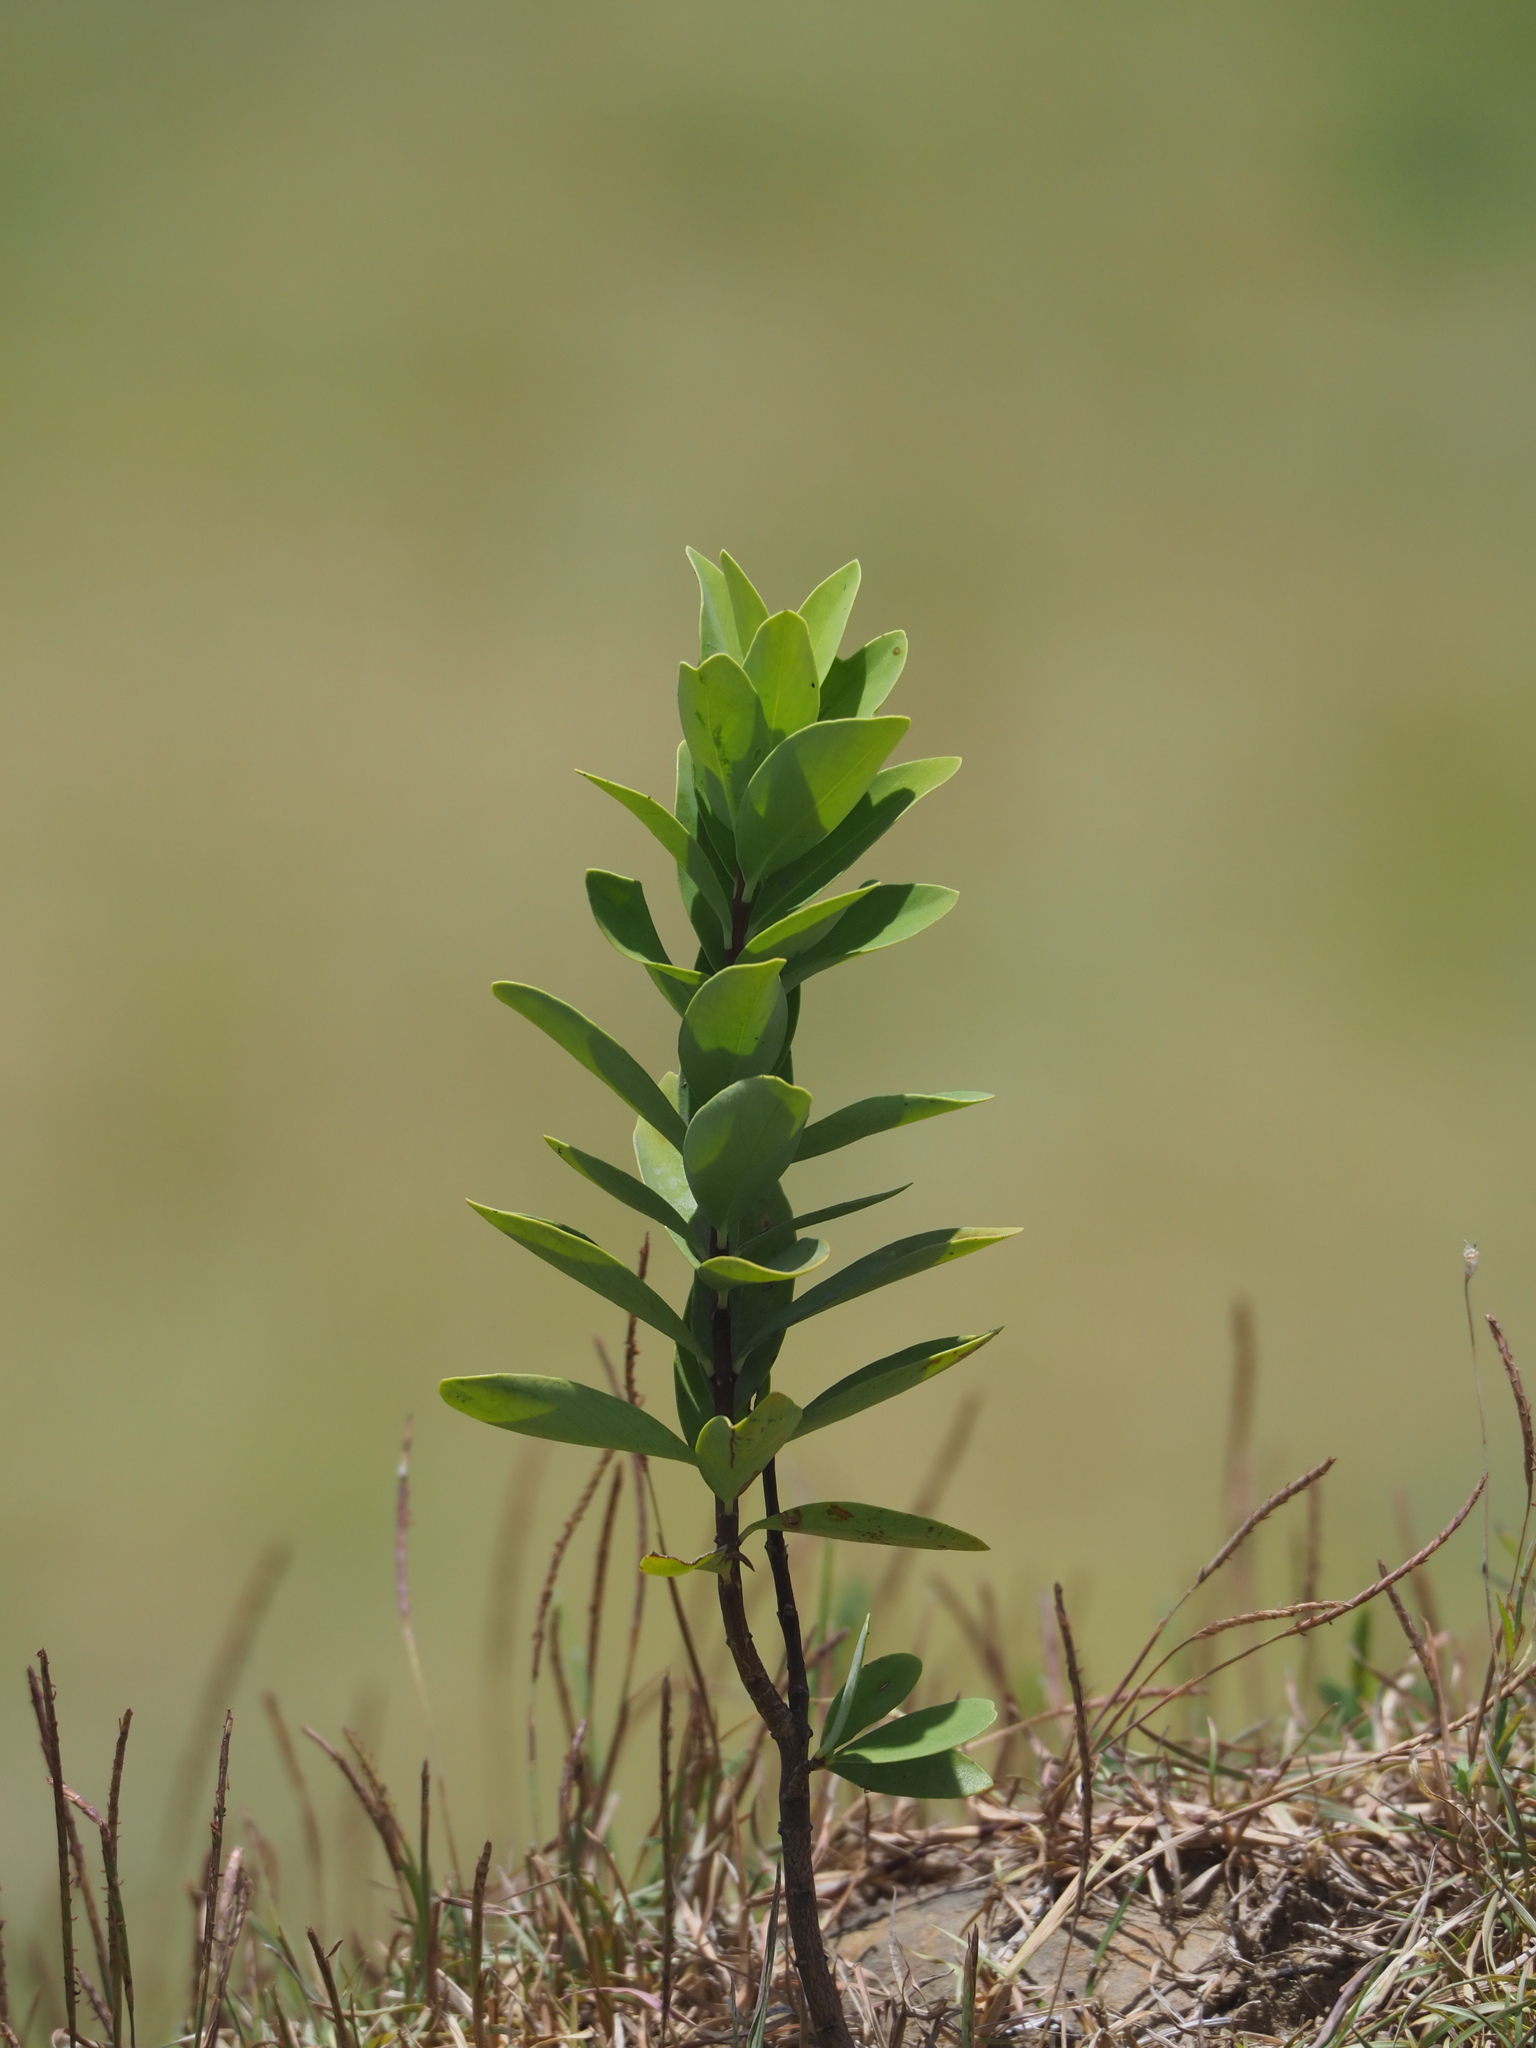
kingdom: Plantae
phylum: Tracheophyta
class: Magnoliopsida
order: Malvales
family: Thymelaeaceae
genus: Wikstroemia
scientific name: Wikstroemia indica
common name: Tiebush
